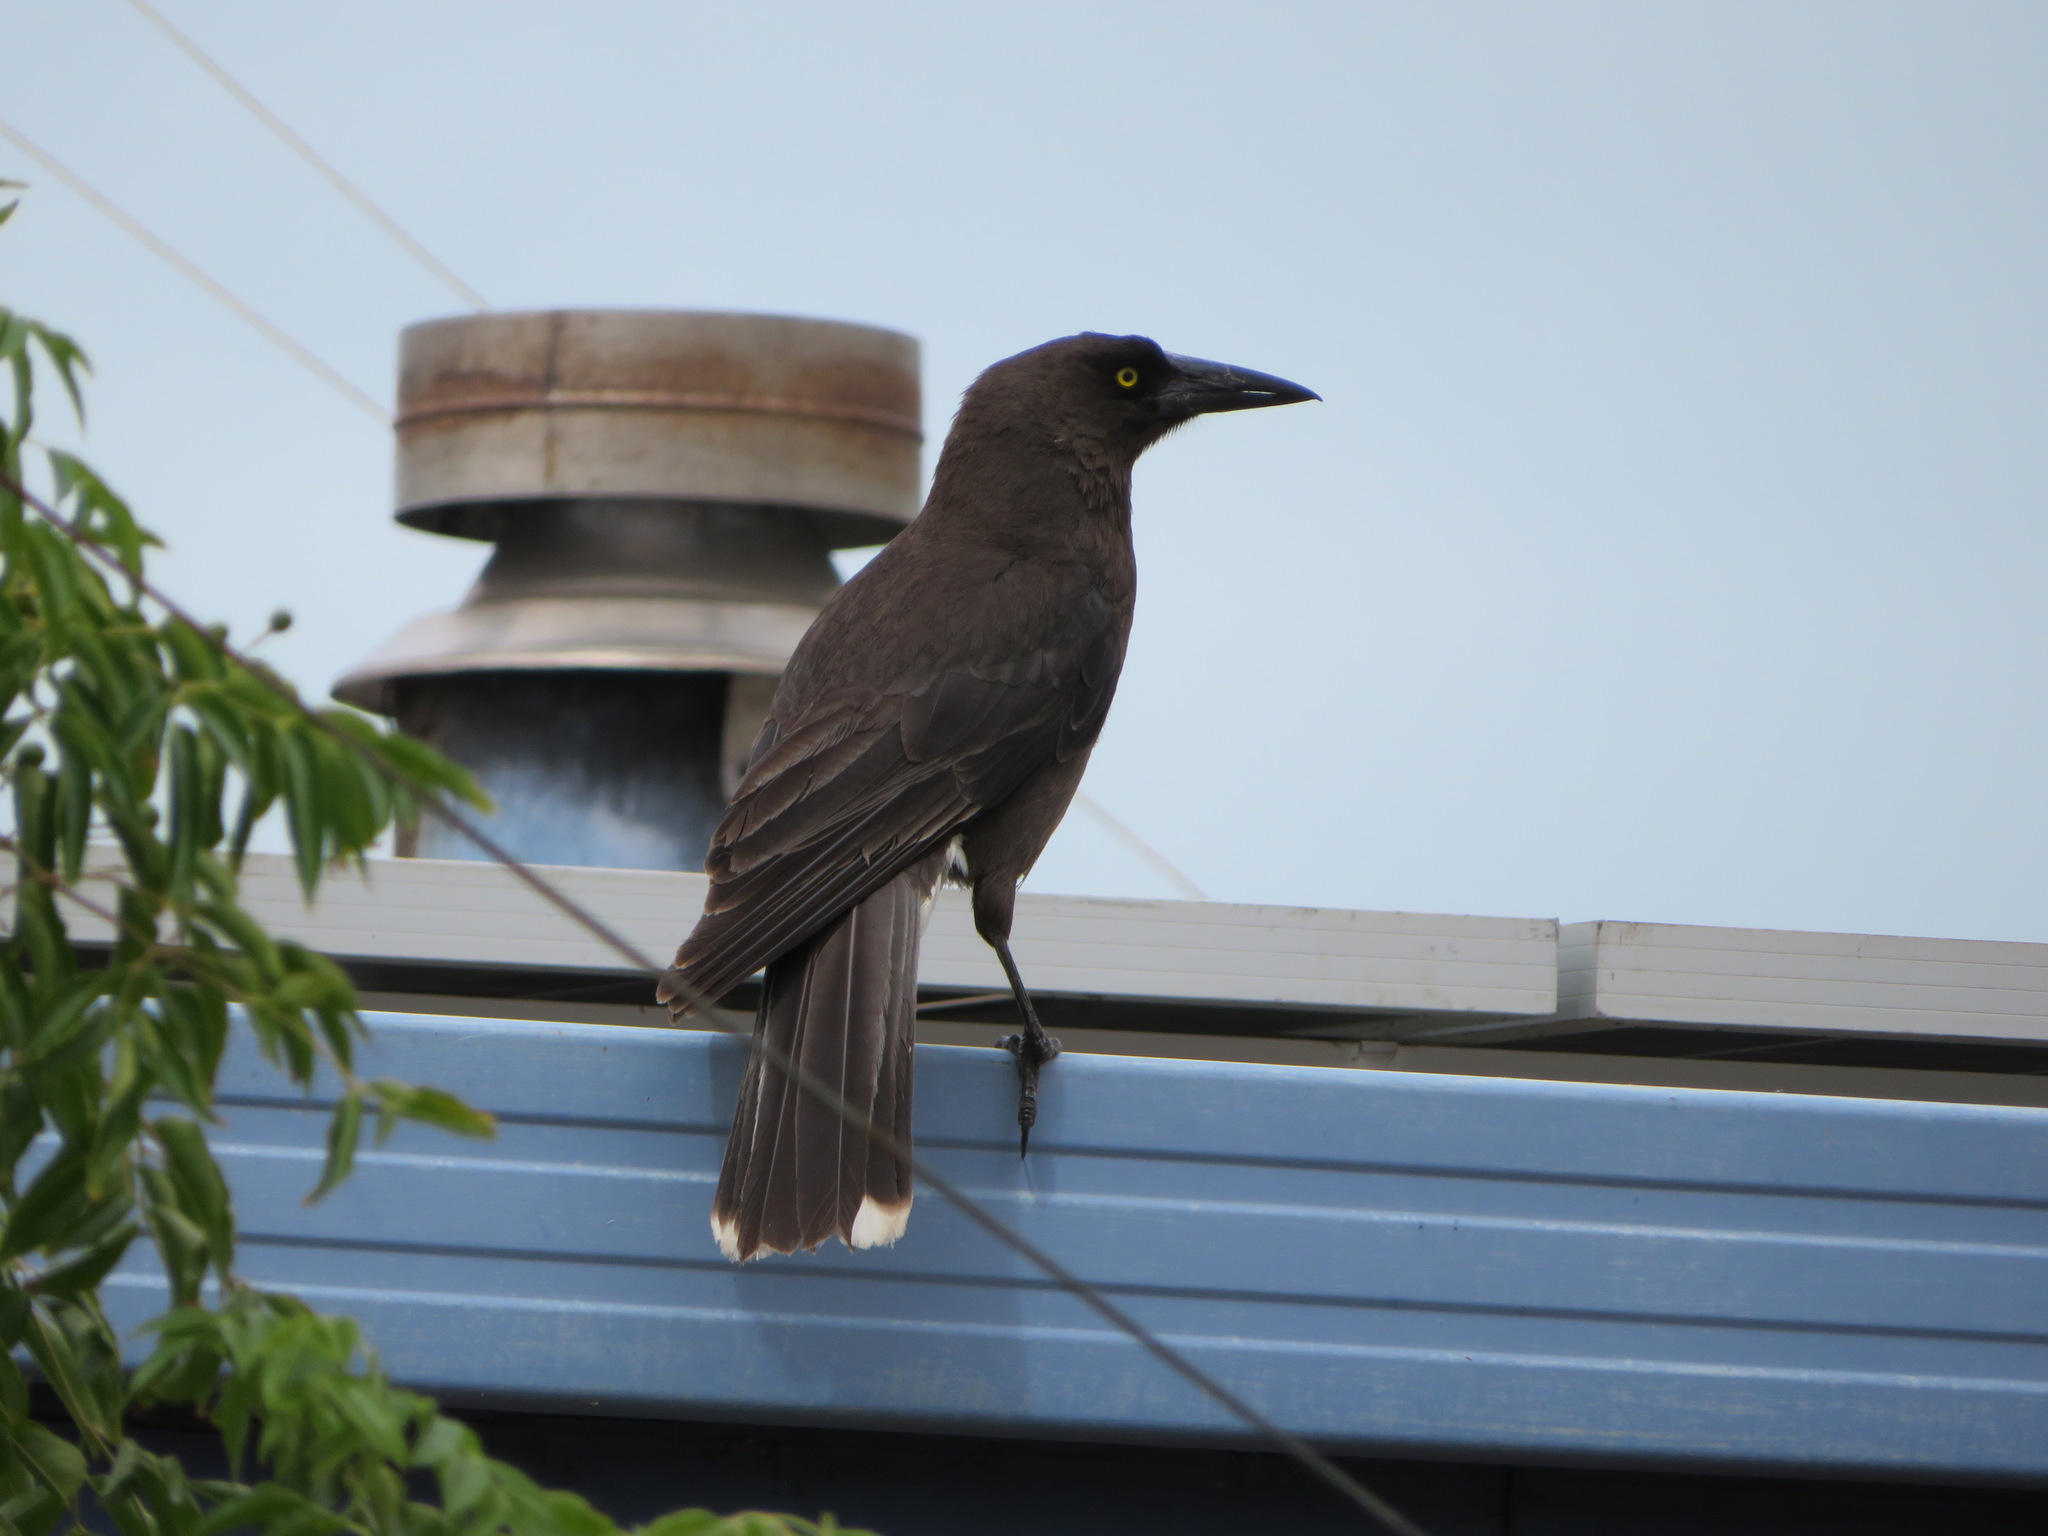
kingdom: Animalia
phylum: Chordata
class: Aves
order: Passeriformes
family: Cracticidae
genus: Strepera
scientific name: Strepera versicolor
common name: Grey currawong
